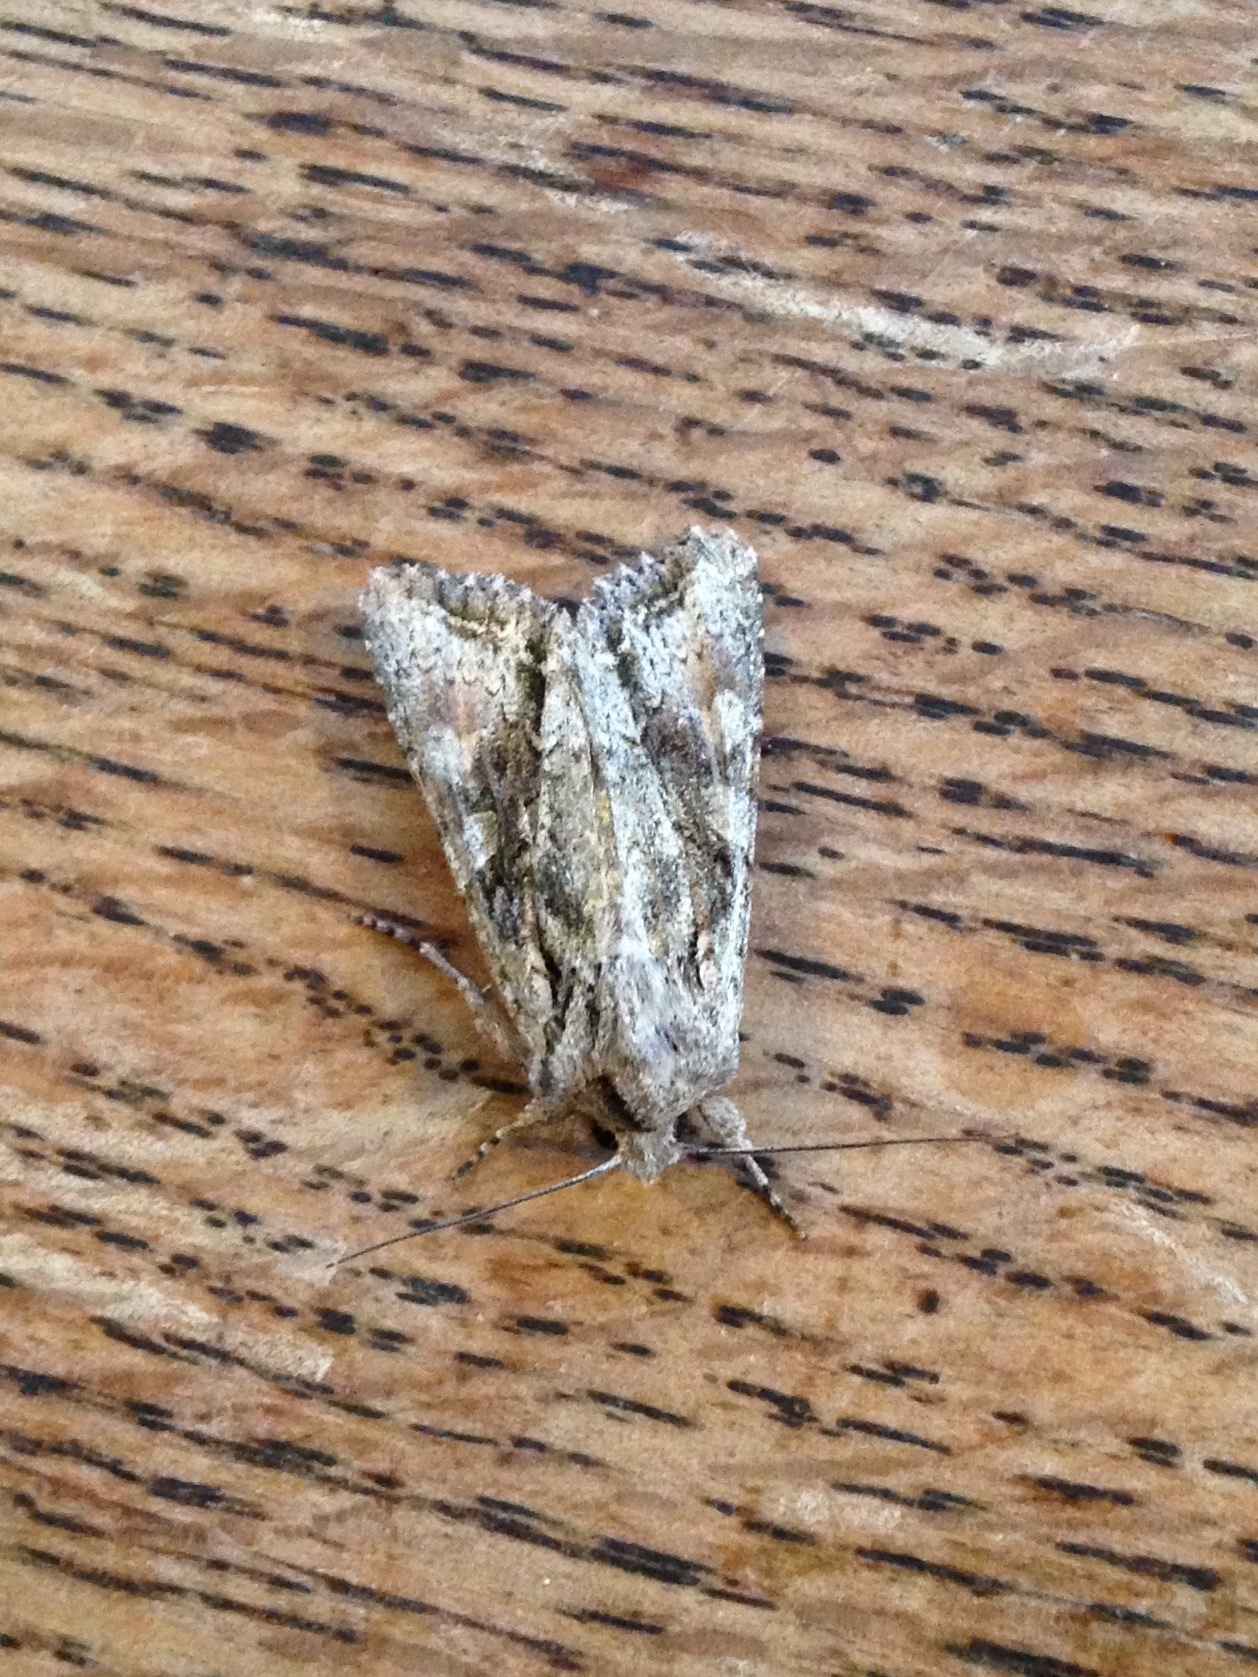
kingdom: Animalia
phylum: Arthropoda
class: Insecta
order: Lepidoptera
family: Noctuidae
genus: Ichneutica
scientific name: Ichneutica mutans
